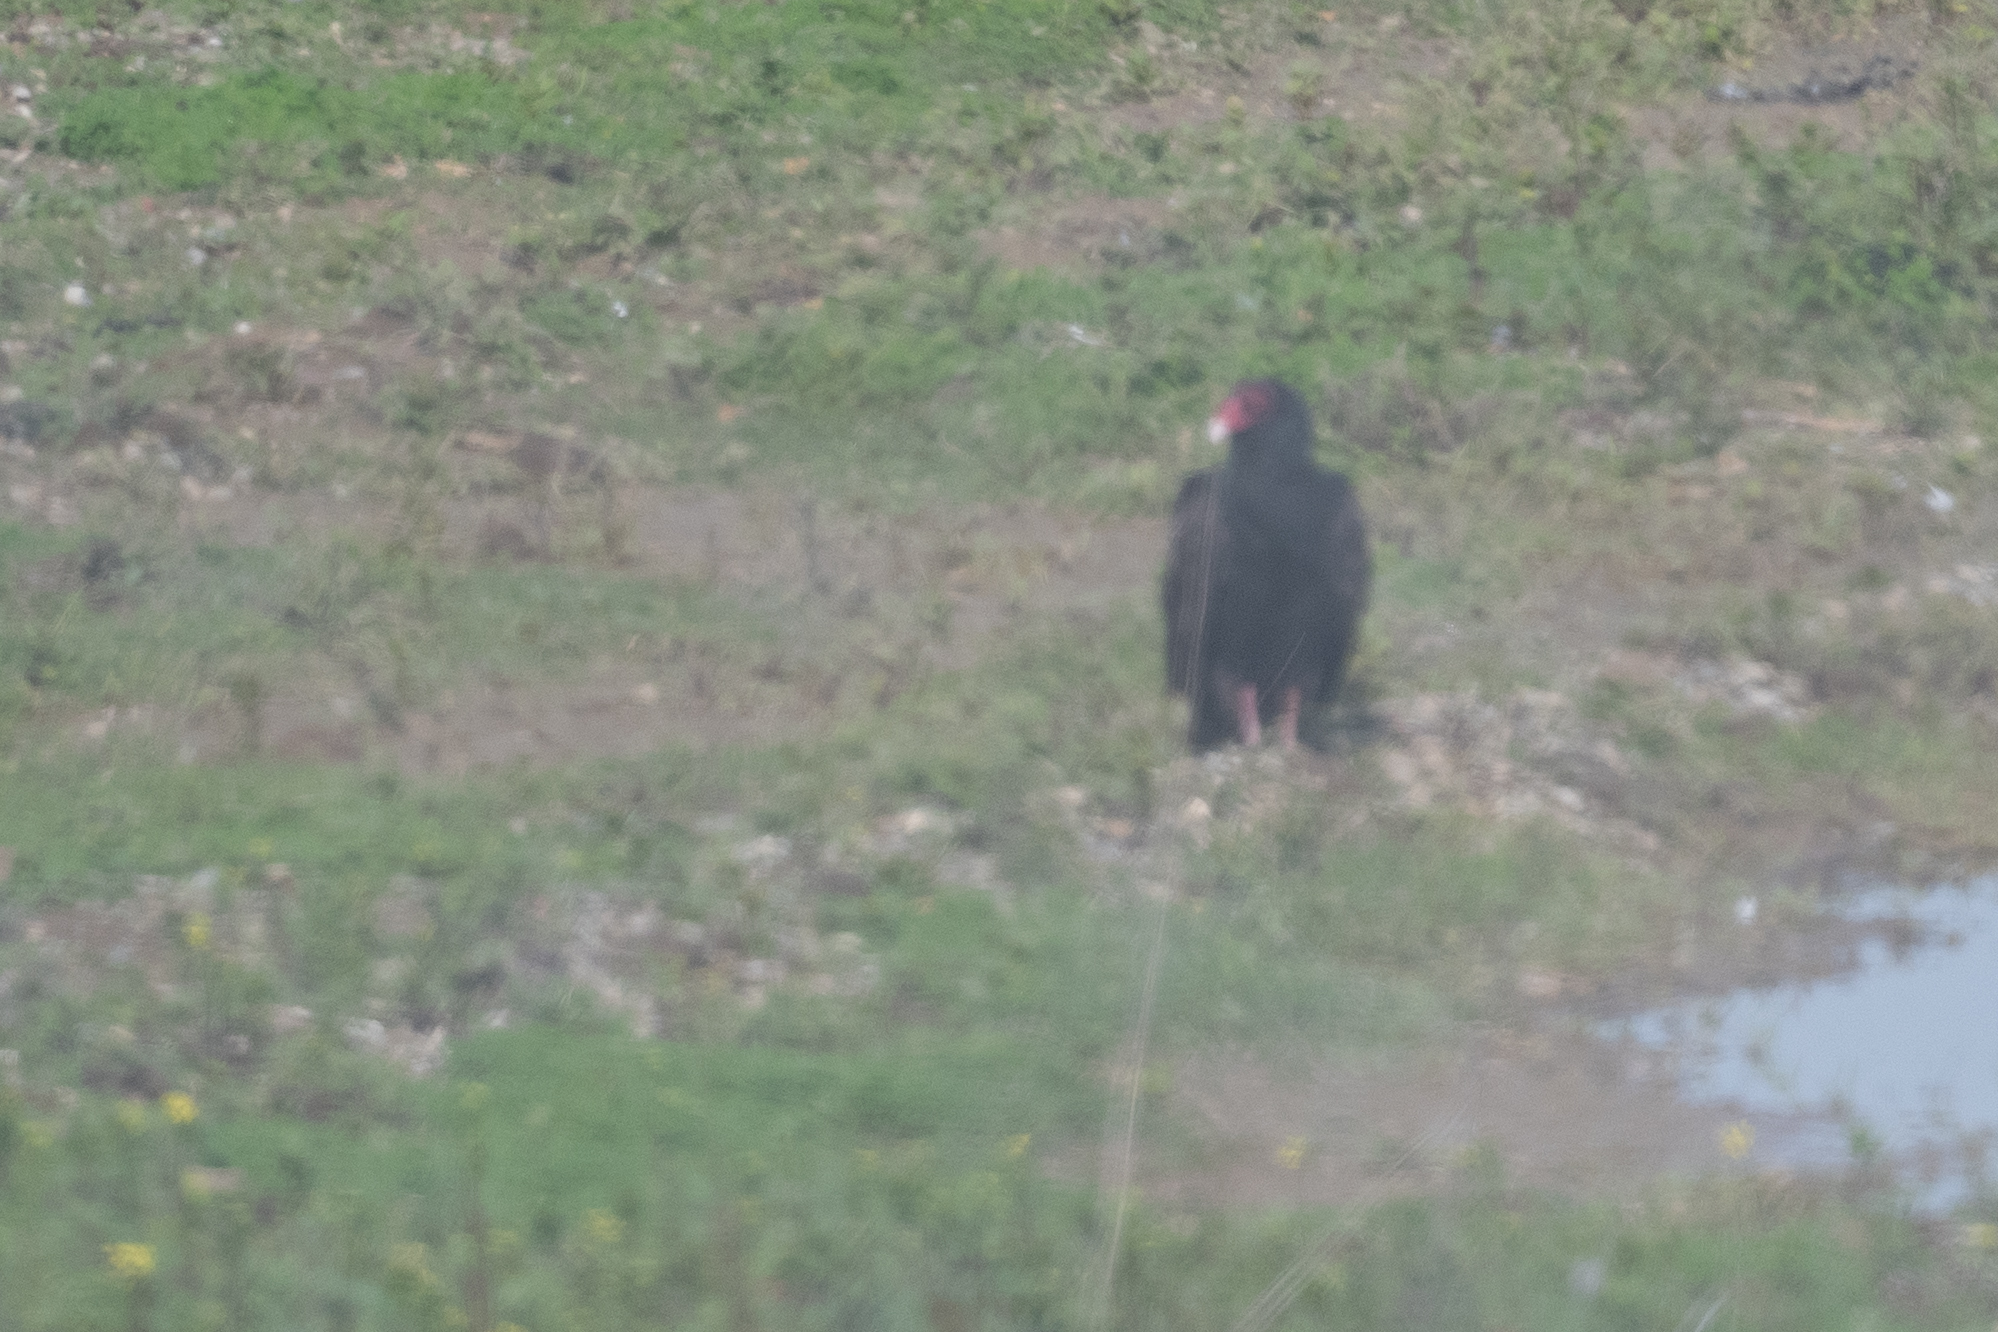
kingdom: Animalia
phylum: Chordata
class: Aves
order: Accipitriformes
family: Cathartidae
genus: Cathartes
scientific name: Cathartes aura
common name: Turkey vulture
